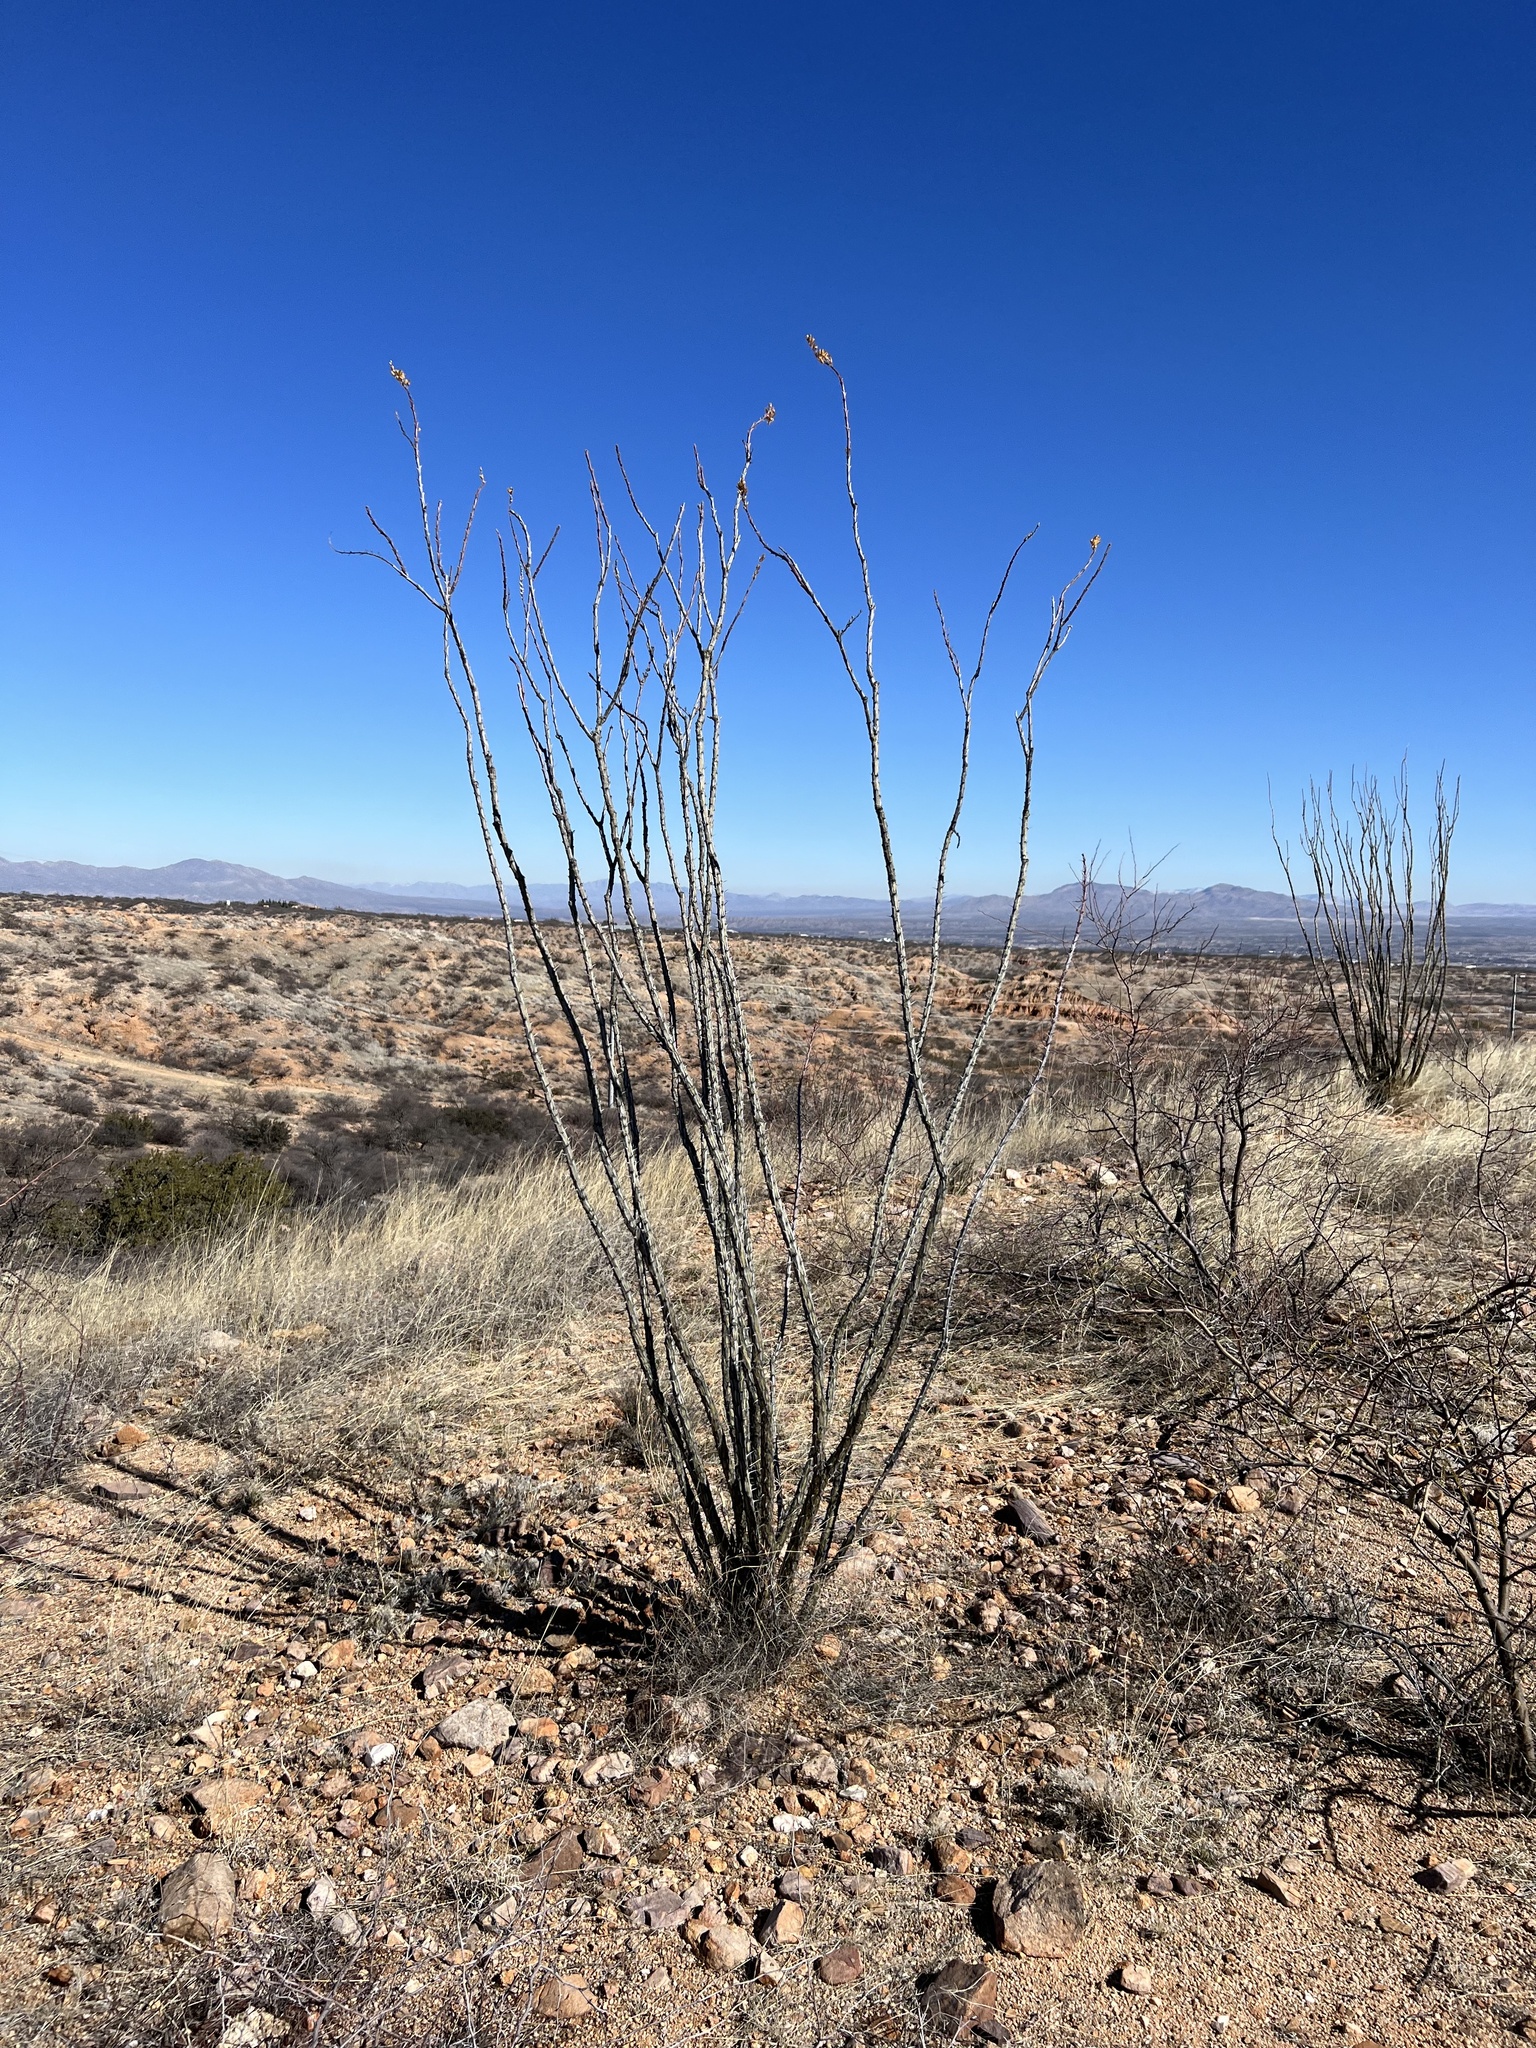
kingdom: Plantae
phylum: Tracheophyta
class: Magnoliopsida
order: Ericales
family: Fouquieriaceae
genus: Fouquieria
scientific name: Fouquieria splendens
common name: Vine-cactus
